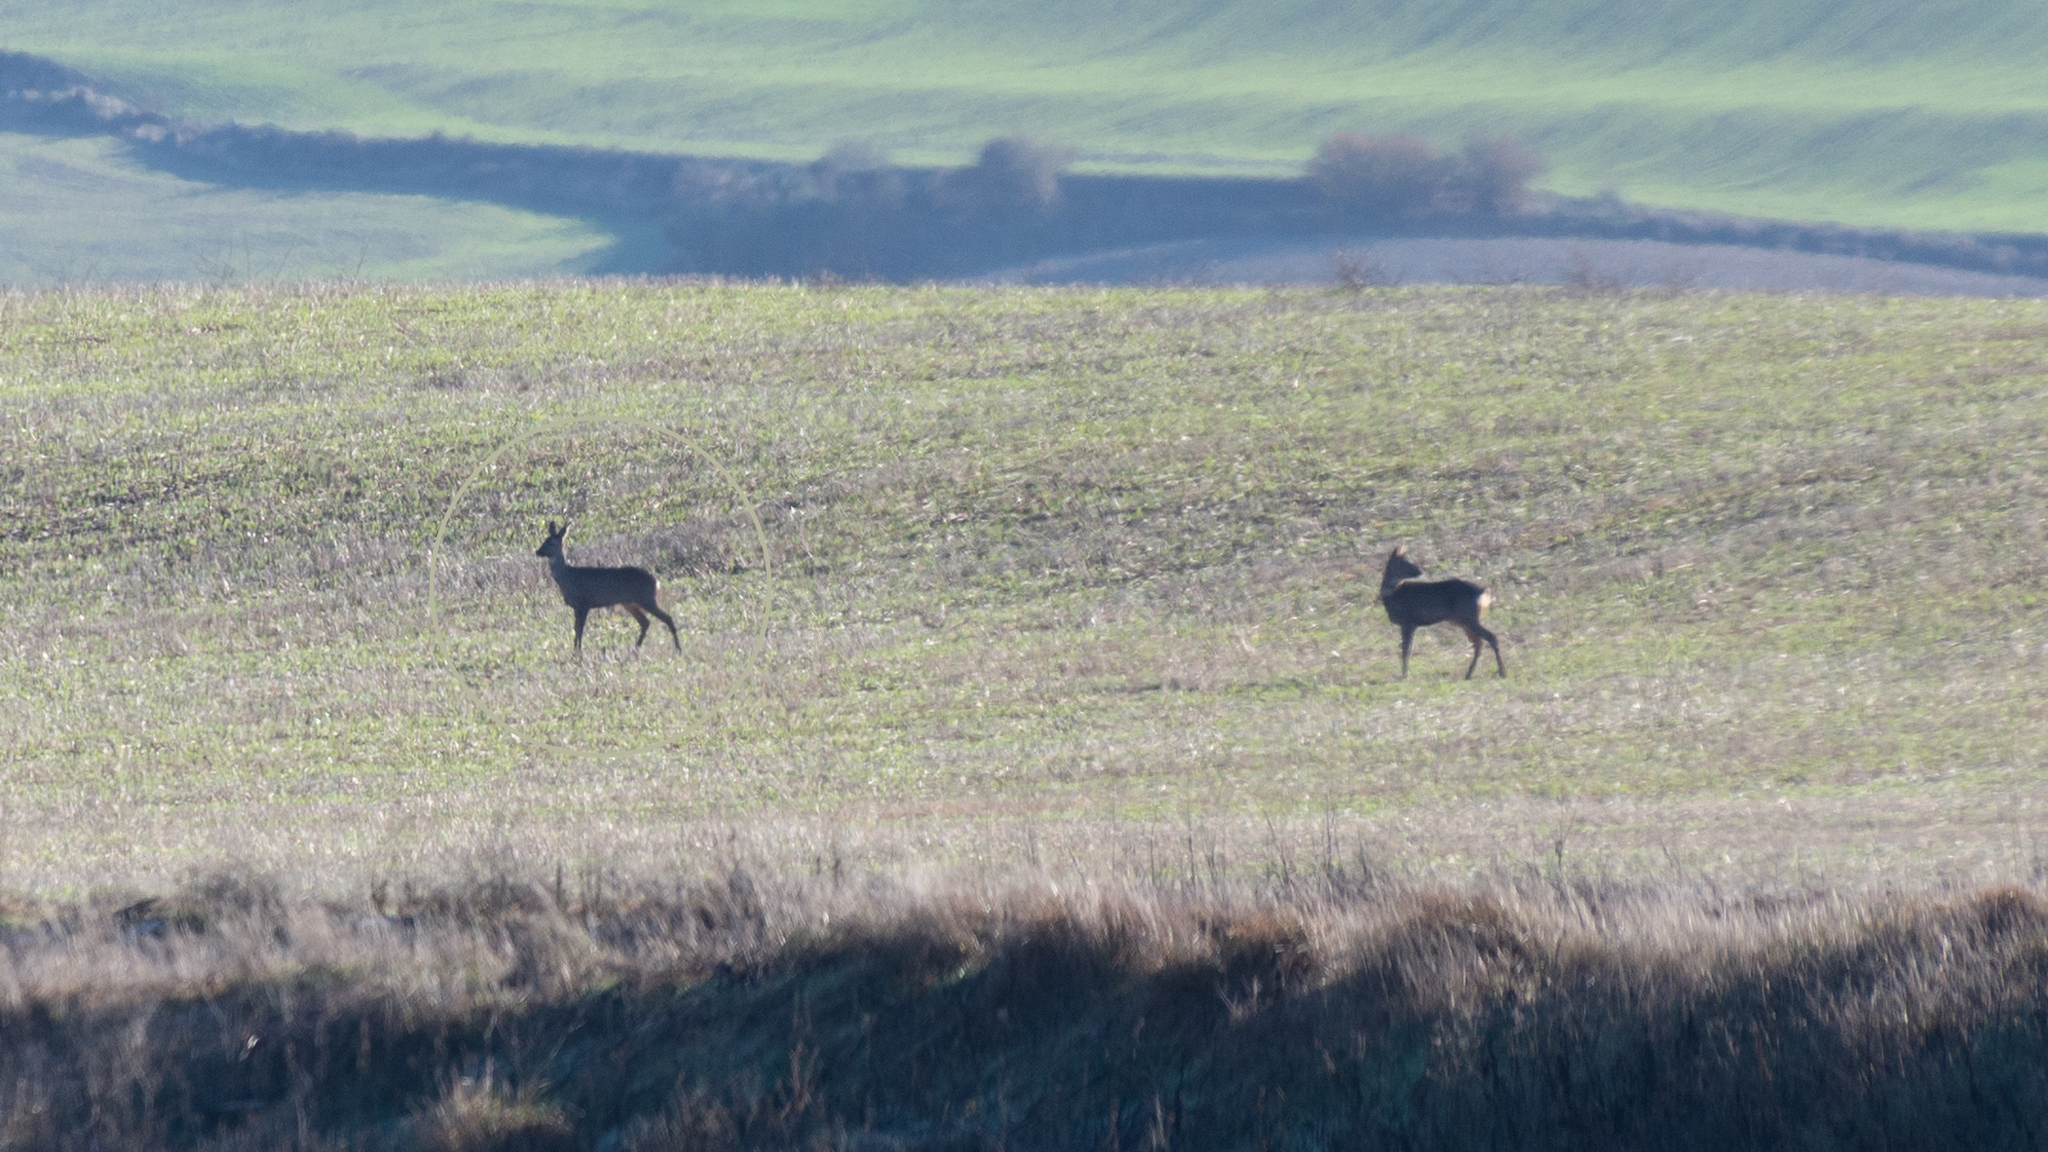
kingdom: Animalia
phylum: Chordata
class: Mammalia
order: Artiodactyla
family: Cervidae
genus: Capreolus
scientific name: Capreolus capreolus
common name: Western roe deer
